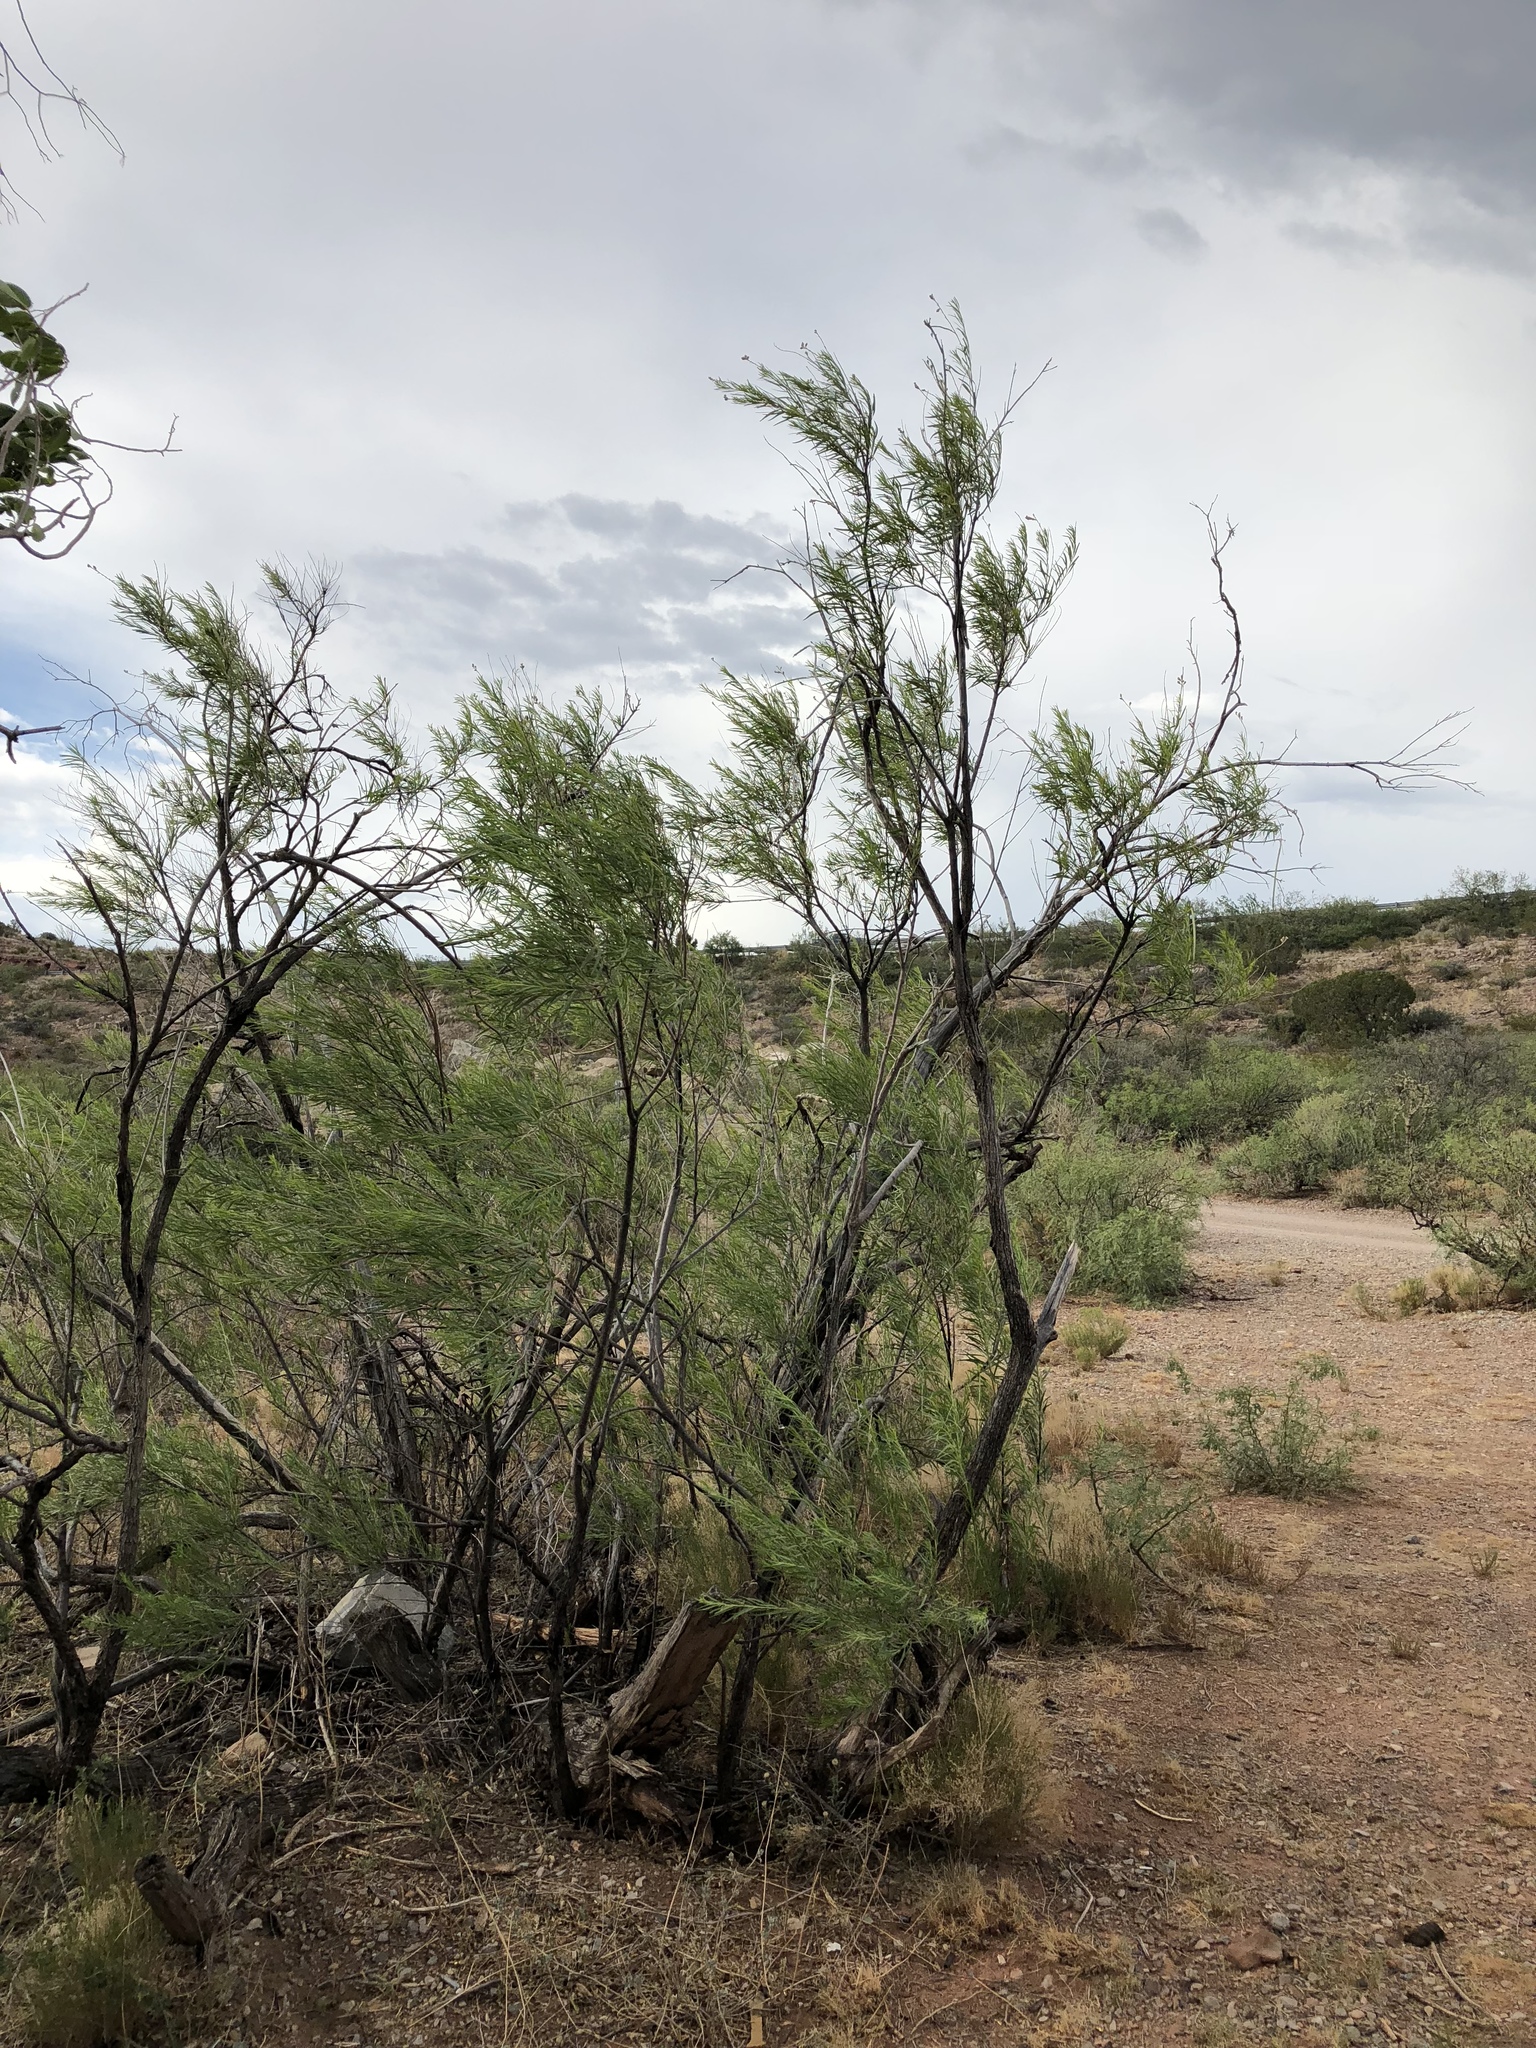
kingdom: Plantae
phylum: Tracheophyta
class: Magnoliopsida
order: Lamiales
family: Bignoniaceae
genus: Chilopsis
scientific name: Chilopsis linearis
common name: Desert-willow
